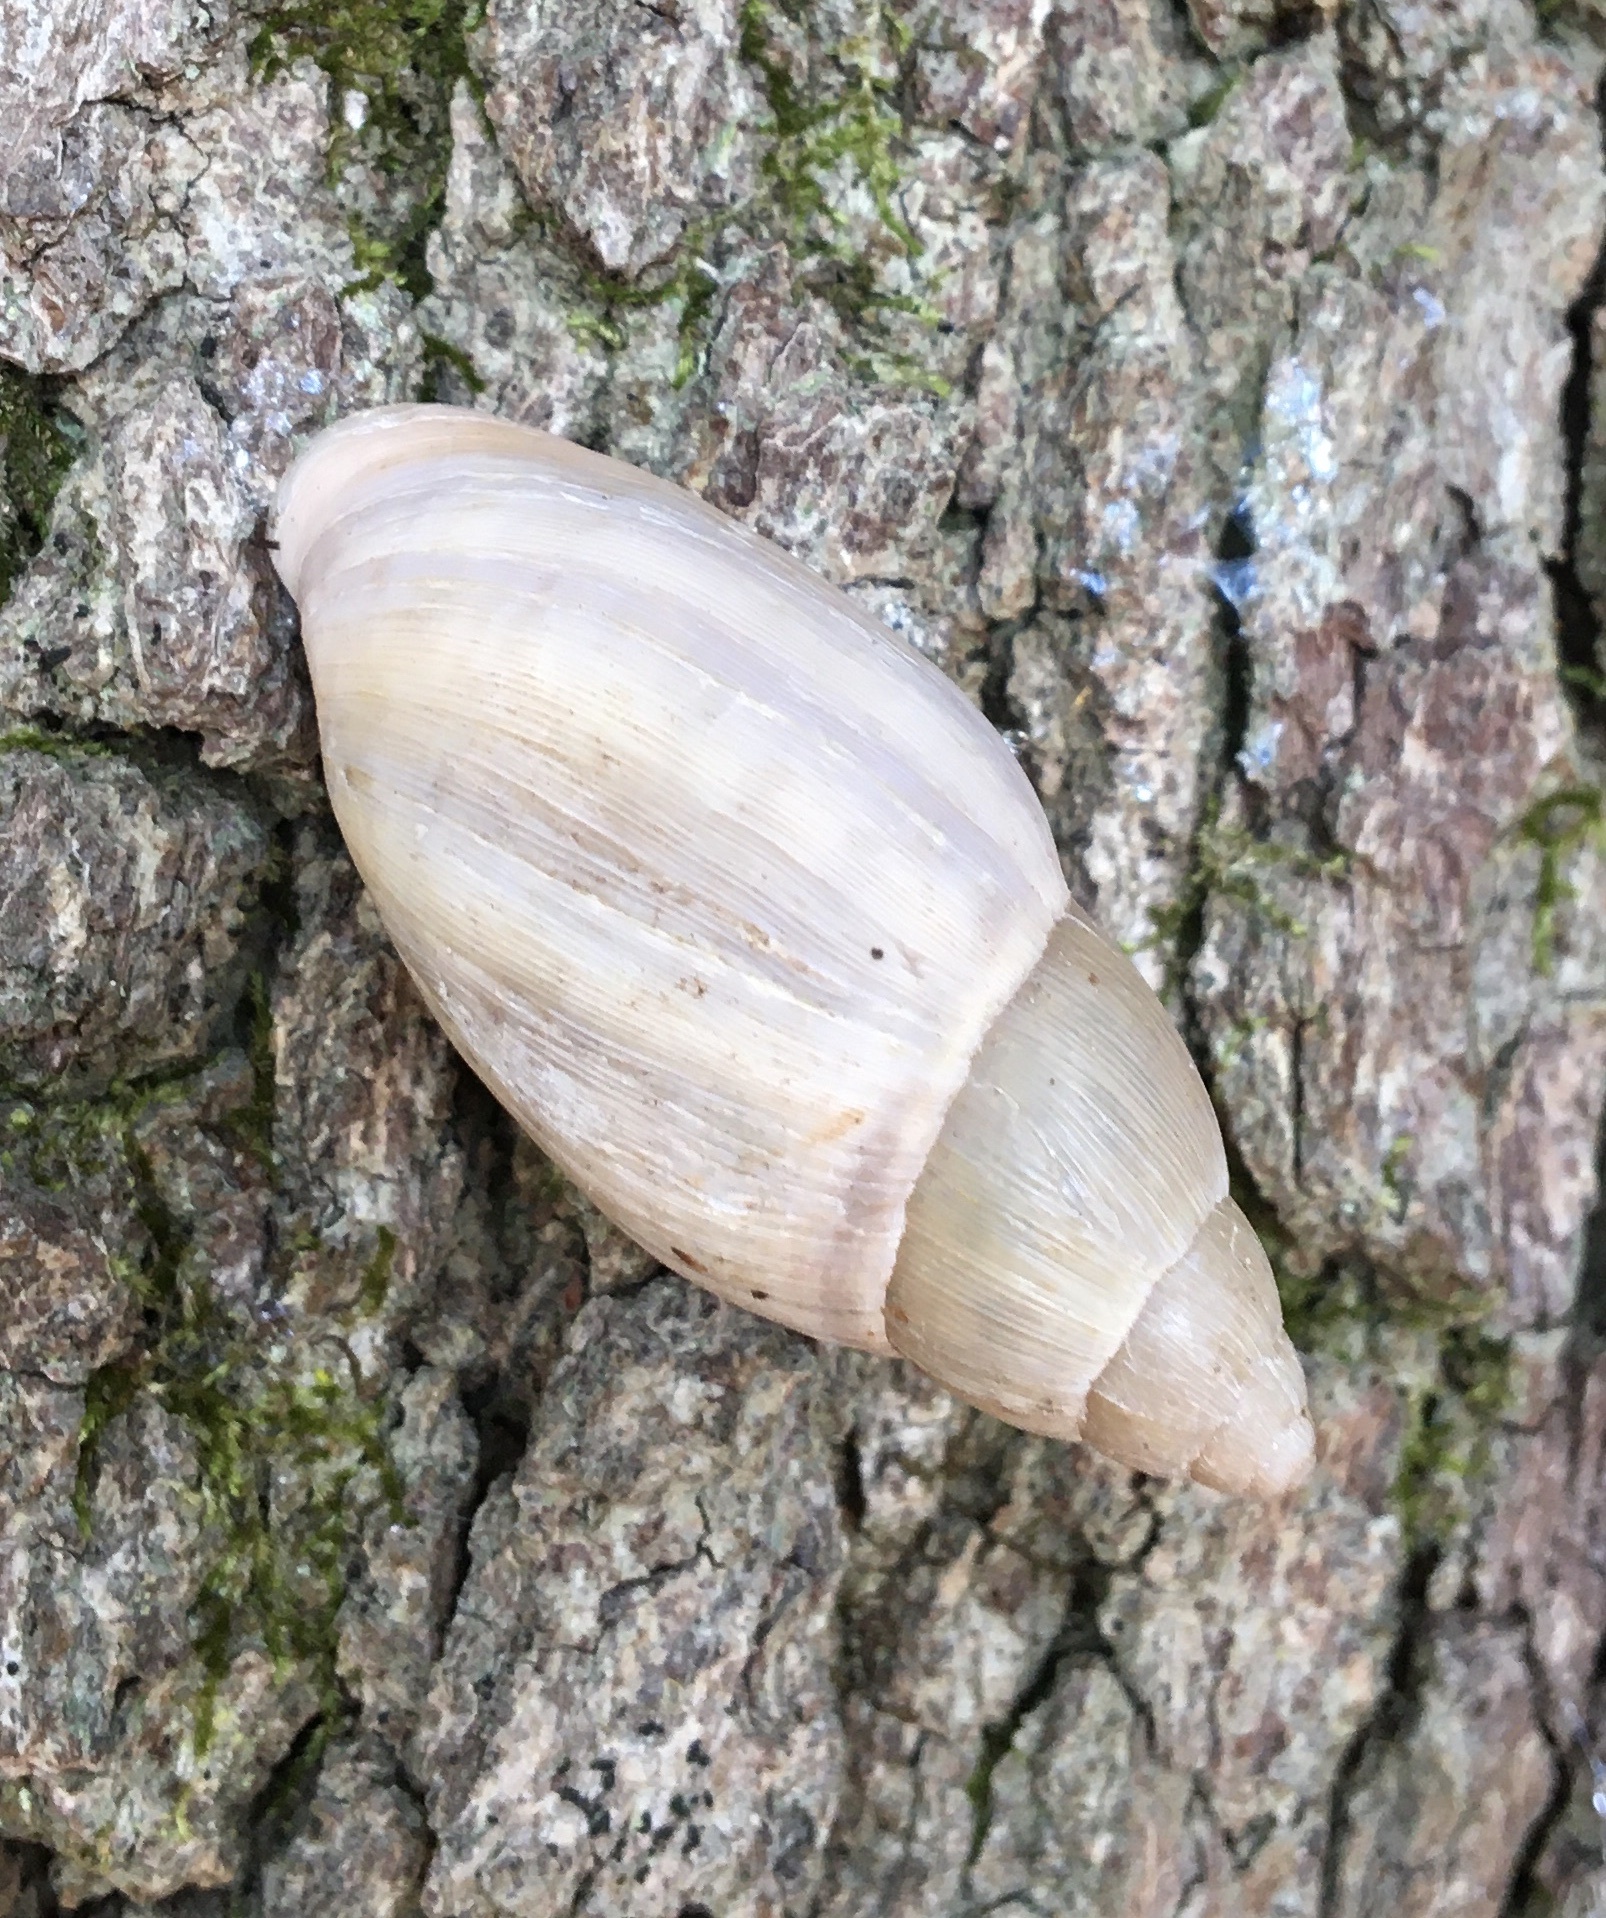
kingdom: Animalia
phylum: Mollusca
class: Gastropoda
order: Stylommatophora
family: Spiraxidae
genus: Euglandina
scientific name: Euglandina rosea
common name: Rosy wolfsnail
